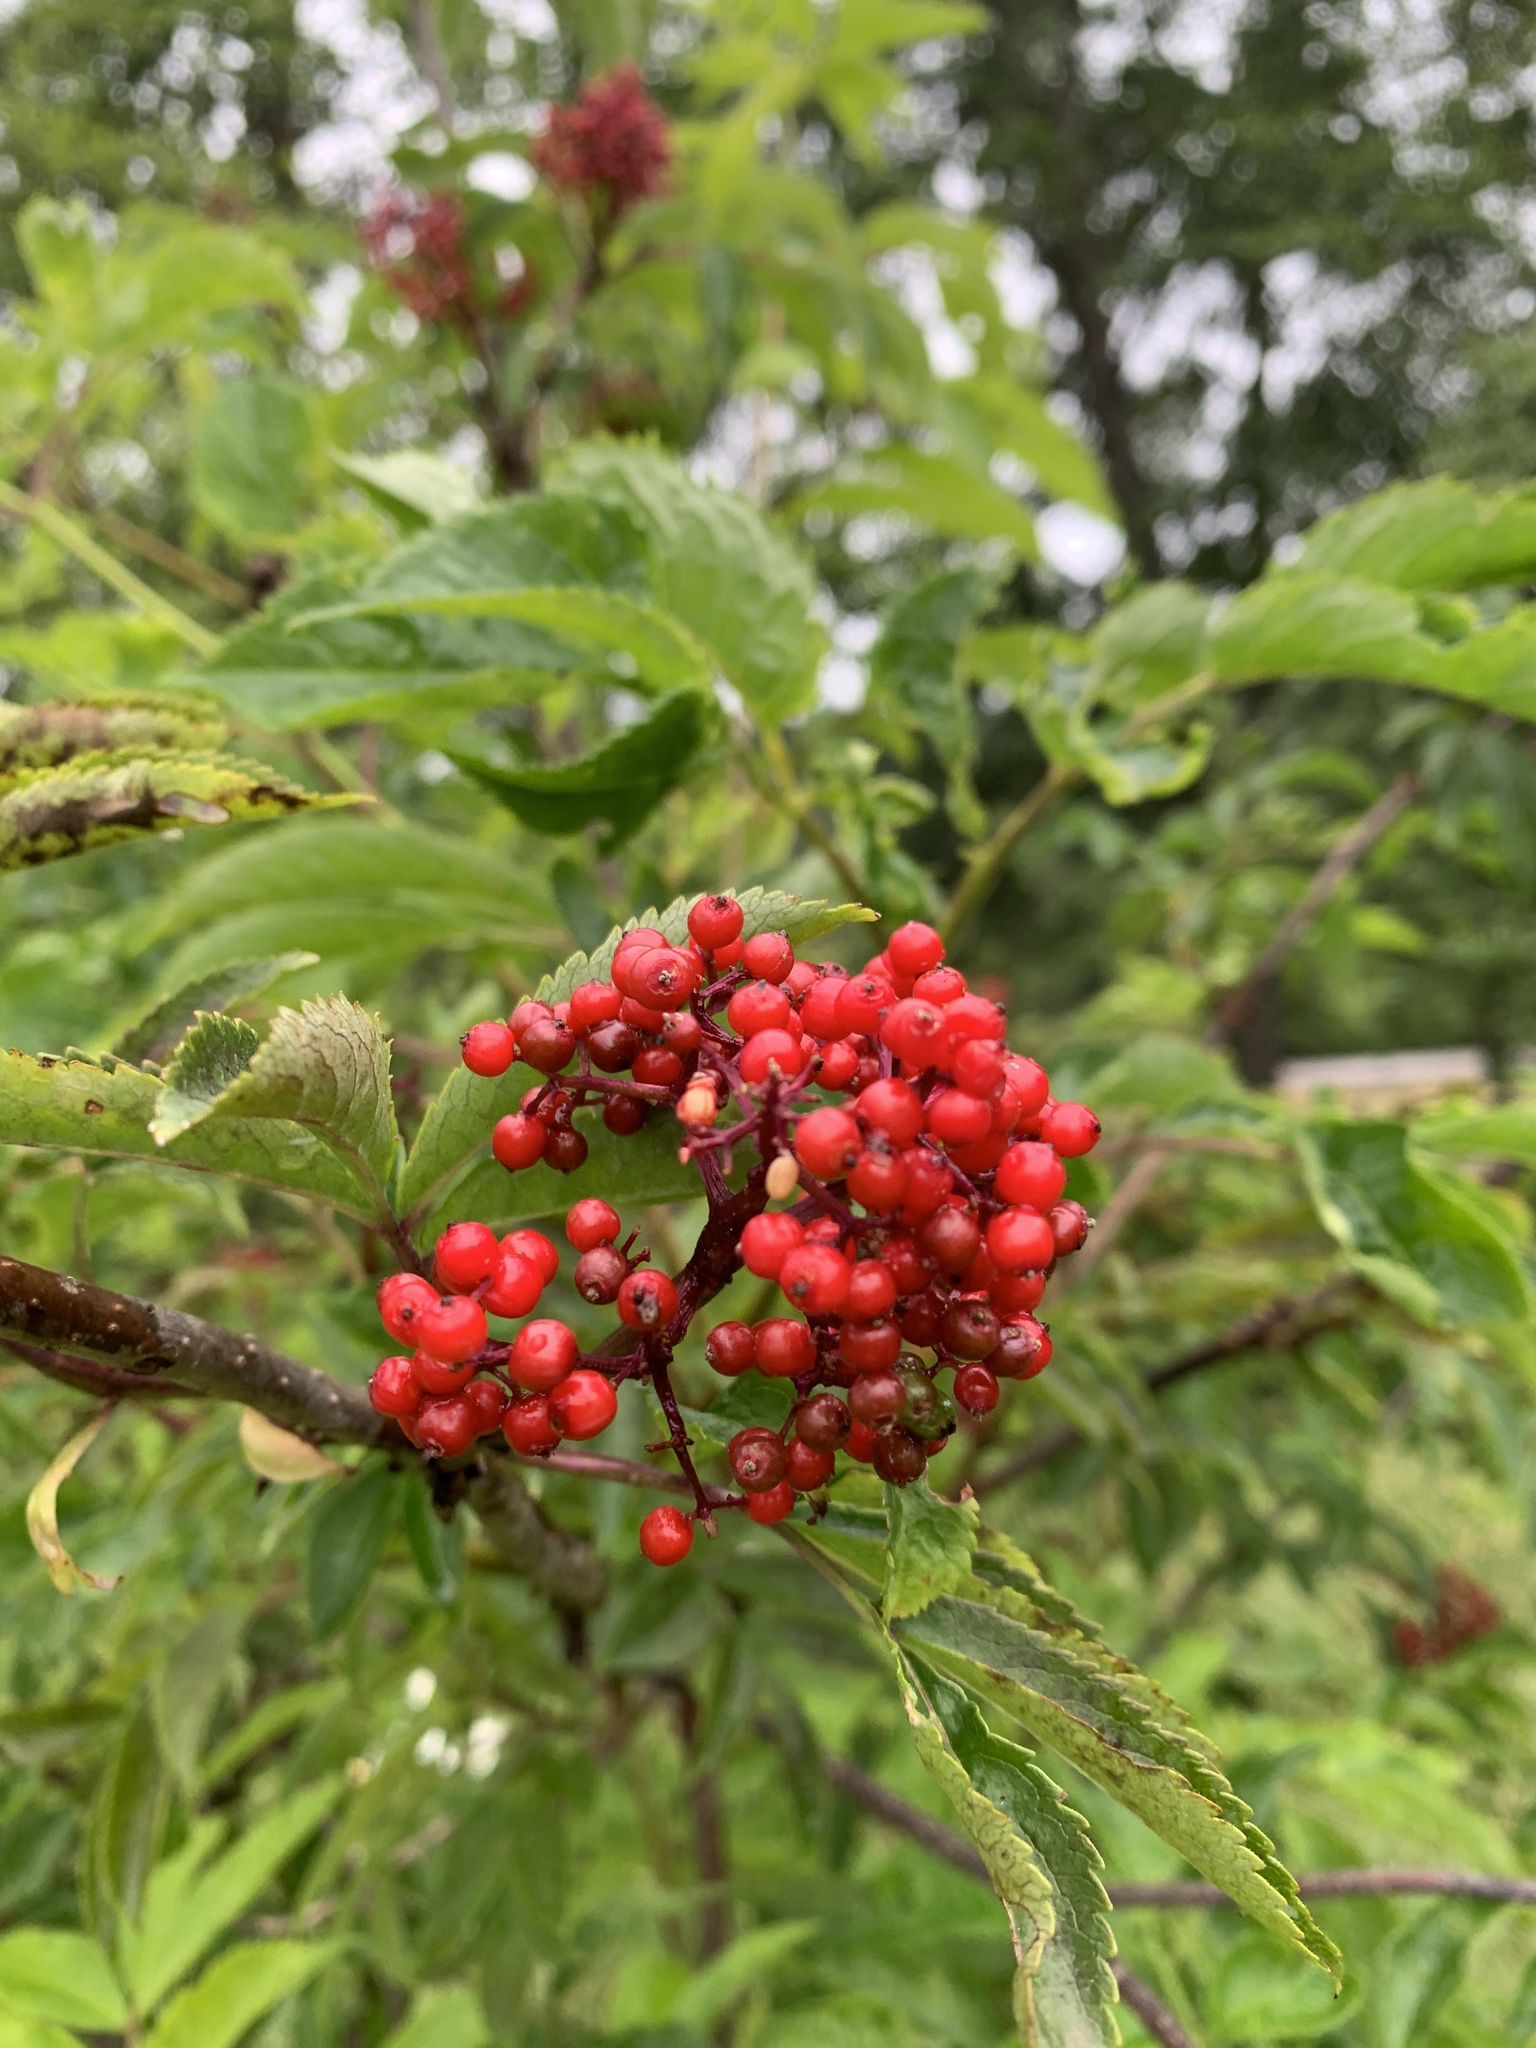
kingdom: Plantae
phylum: Tracheophyta
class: Magnoliopsida
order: Dipsacales
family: Viburnaceae
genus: Sambucus
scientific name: Sambucus racemosa
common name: Red-berried elder
